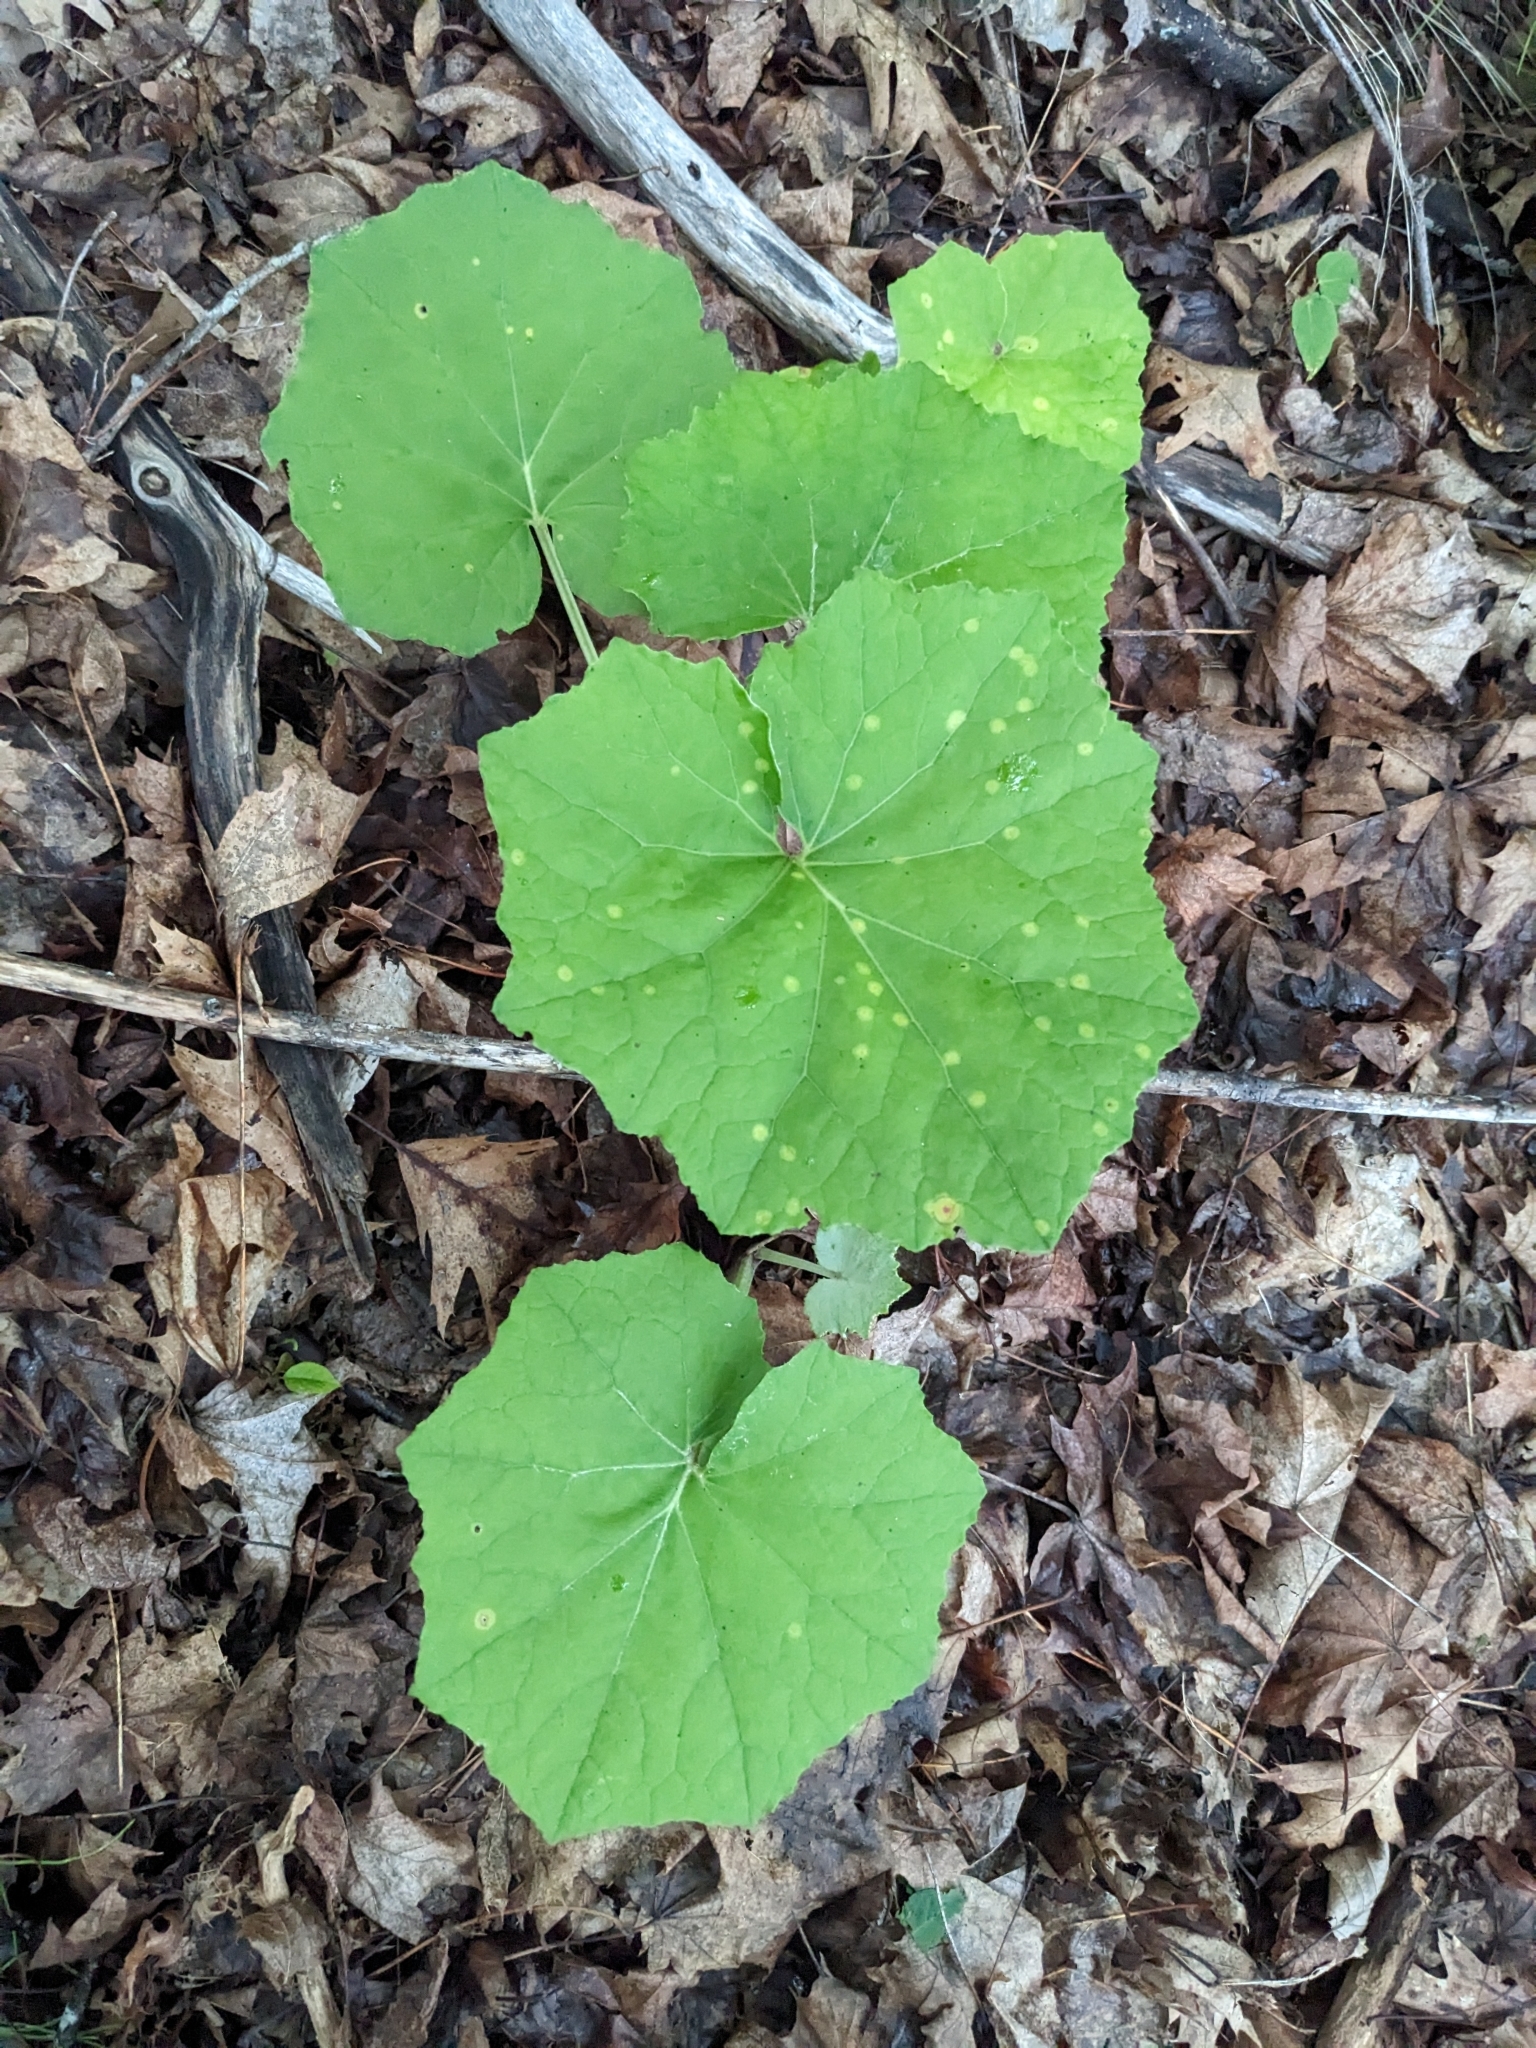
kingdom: Plantae
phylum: Tracheophyta
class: Magnoliopsida
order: Asterales
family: Asteraceae
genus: Tussilago
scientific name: Tussilago farfara
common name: Coltsfoot
